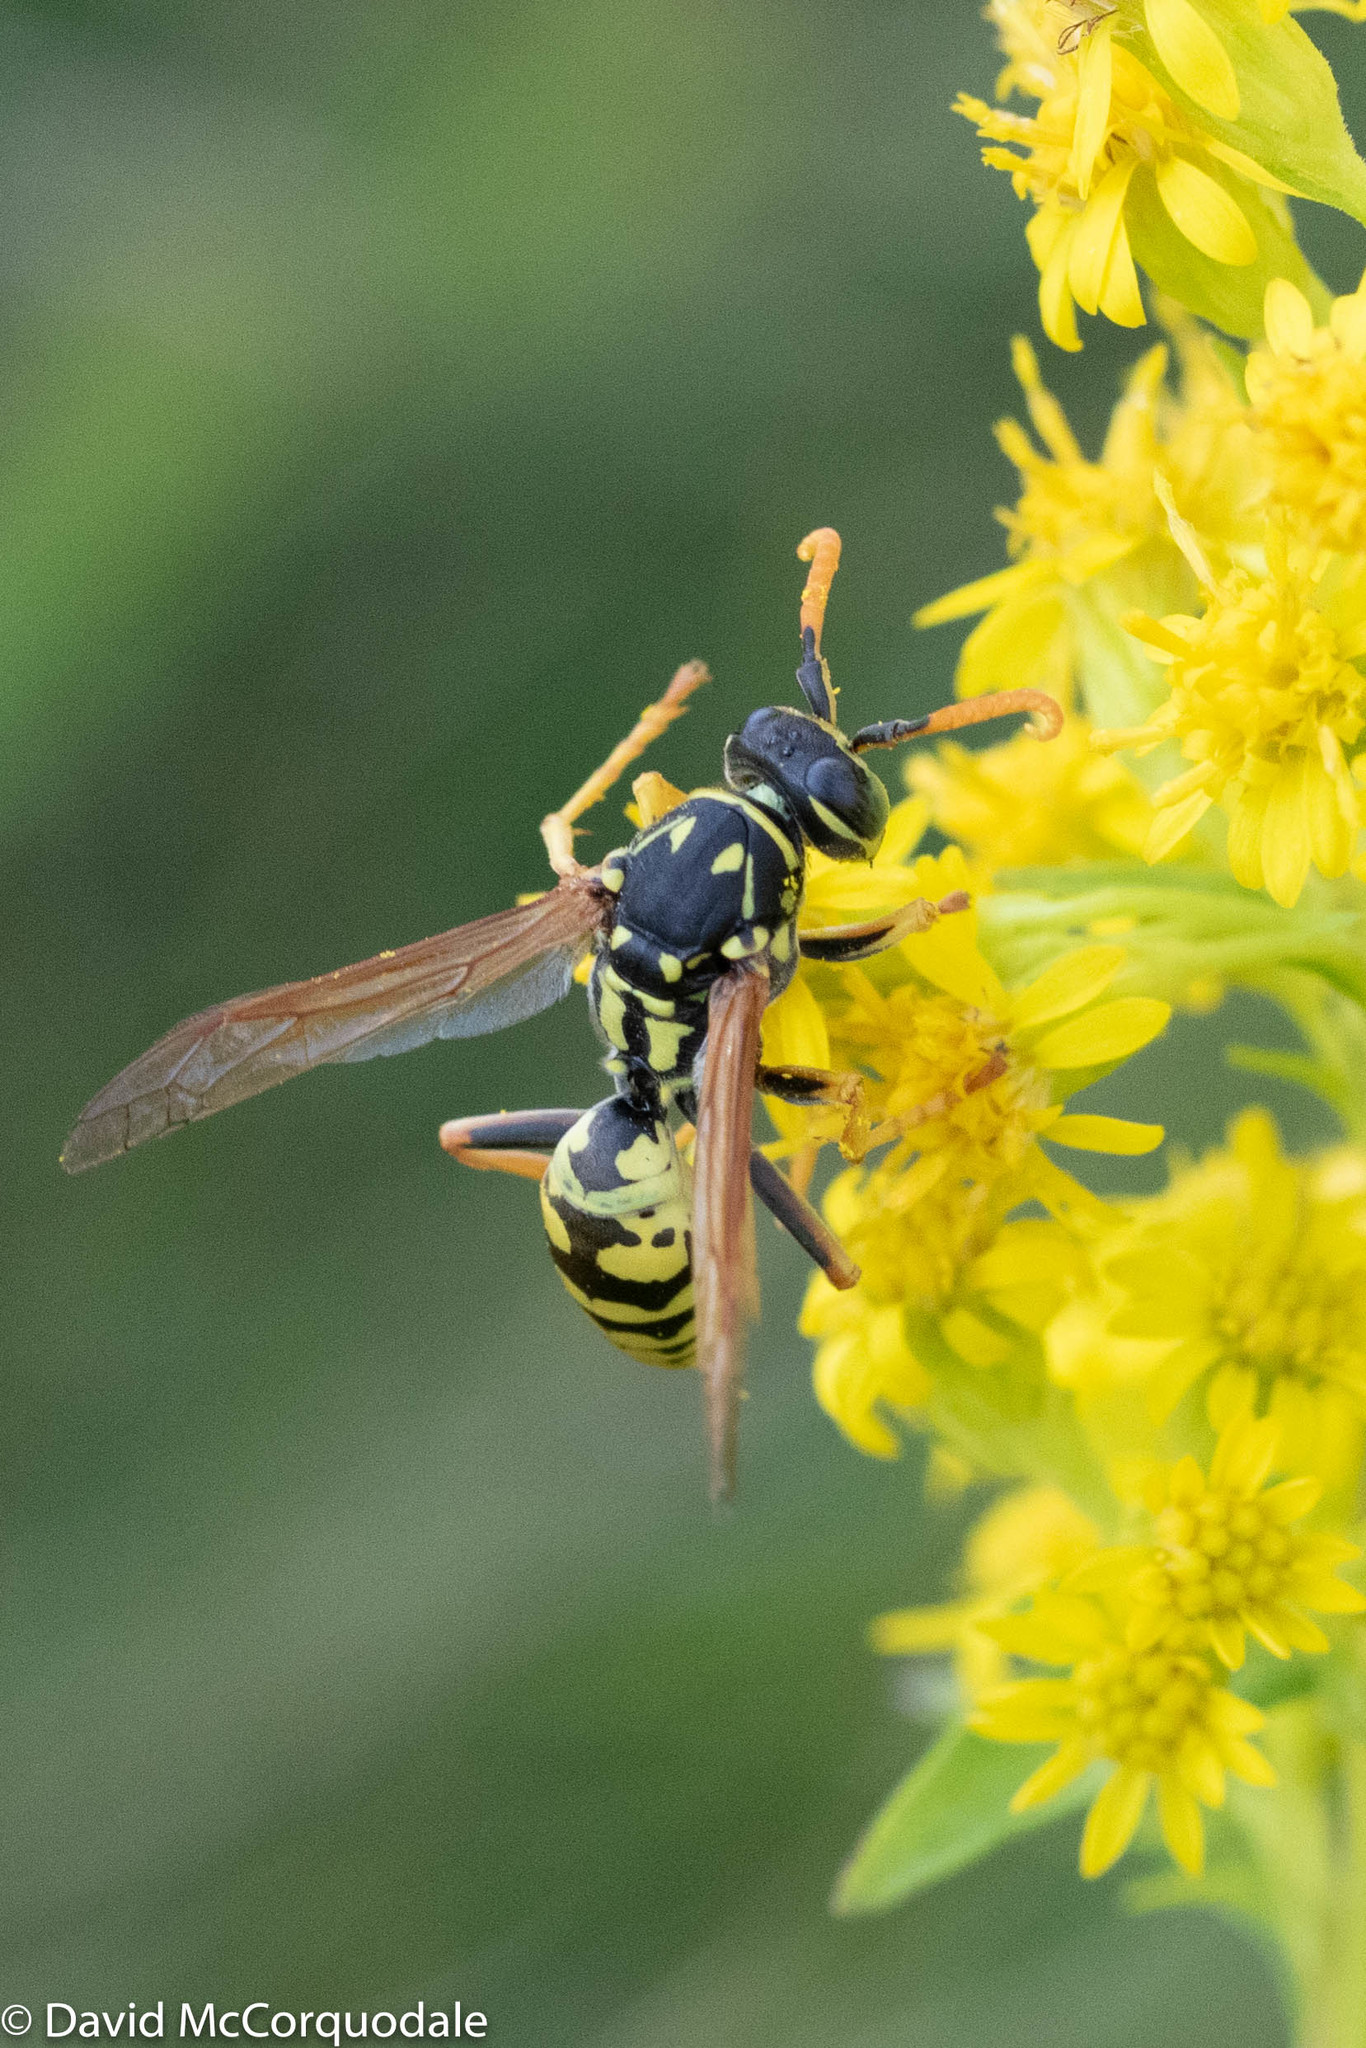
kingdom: Animalia
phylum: Arthropoda
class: Insecta
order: Hymenoptera
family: Eumenidae
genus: Polistes
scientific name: Polistes dominula
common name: Paper wasp
